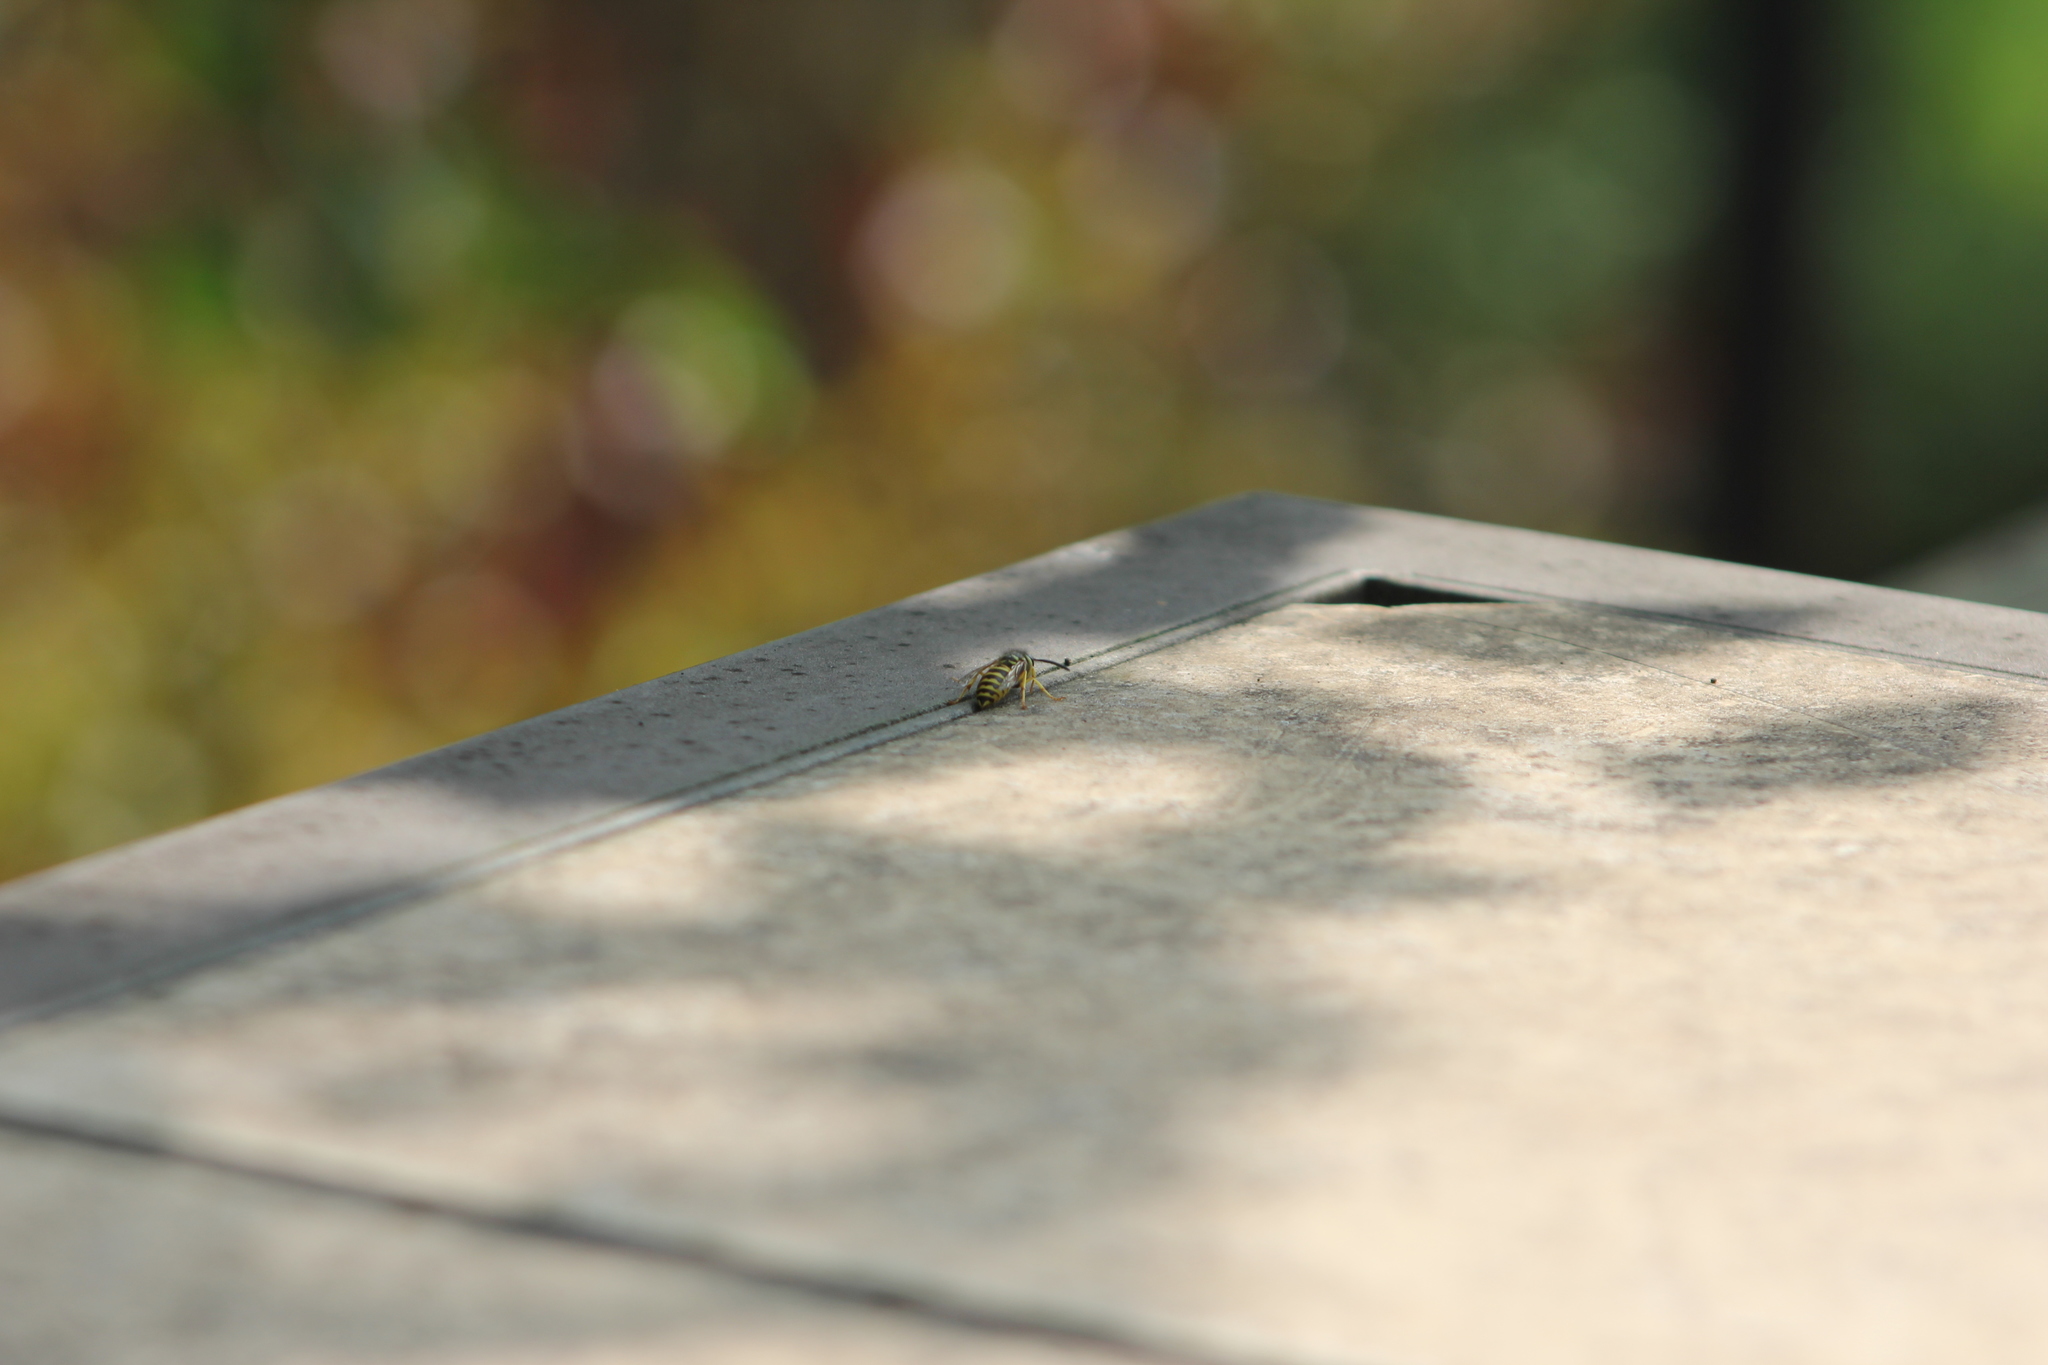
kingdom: Animalia
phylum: Arthropoda
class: Insecta
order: Hymenoptera
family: Vespidae
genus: Vespula
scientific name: Vespula maculifrons
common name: Eastern yellowjacket
